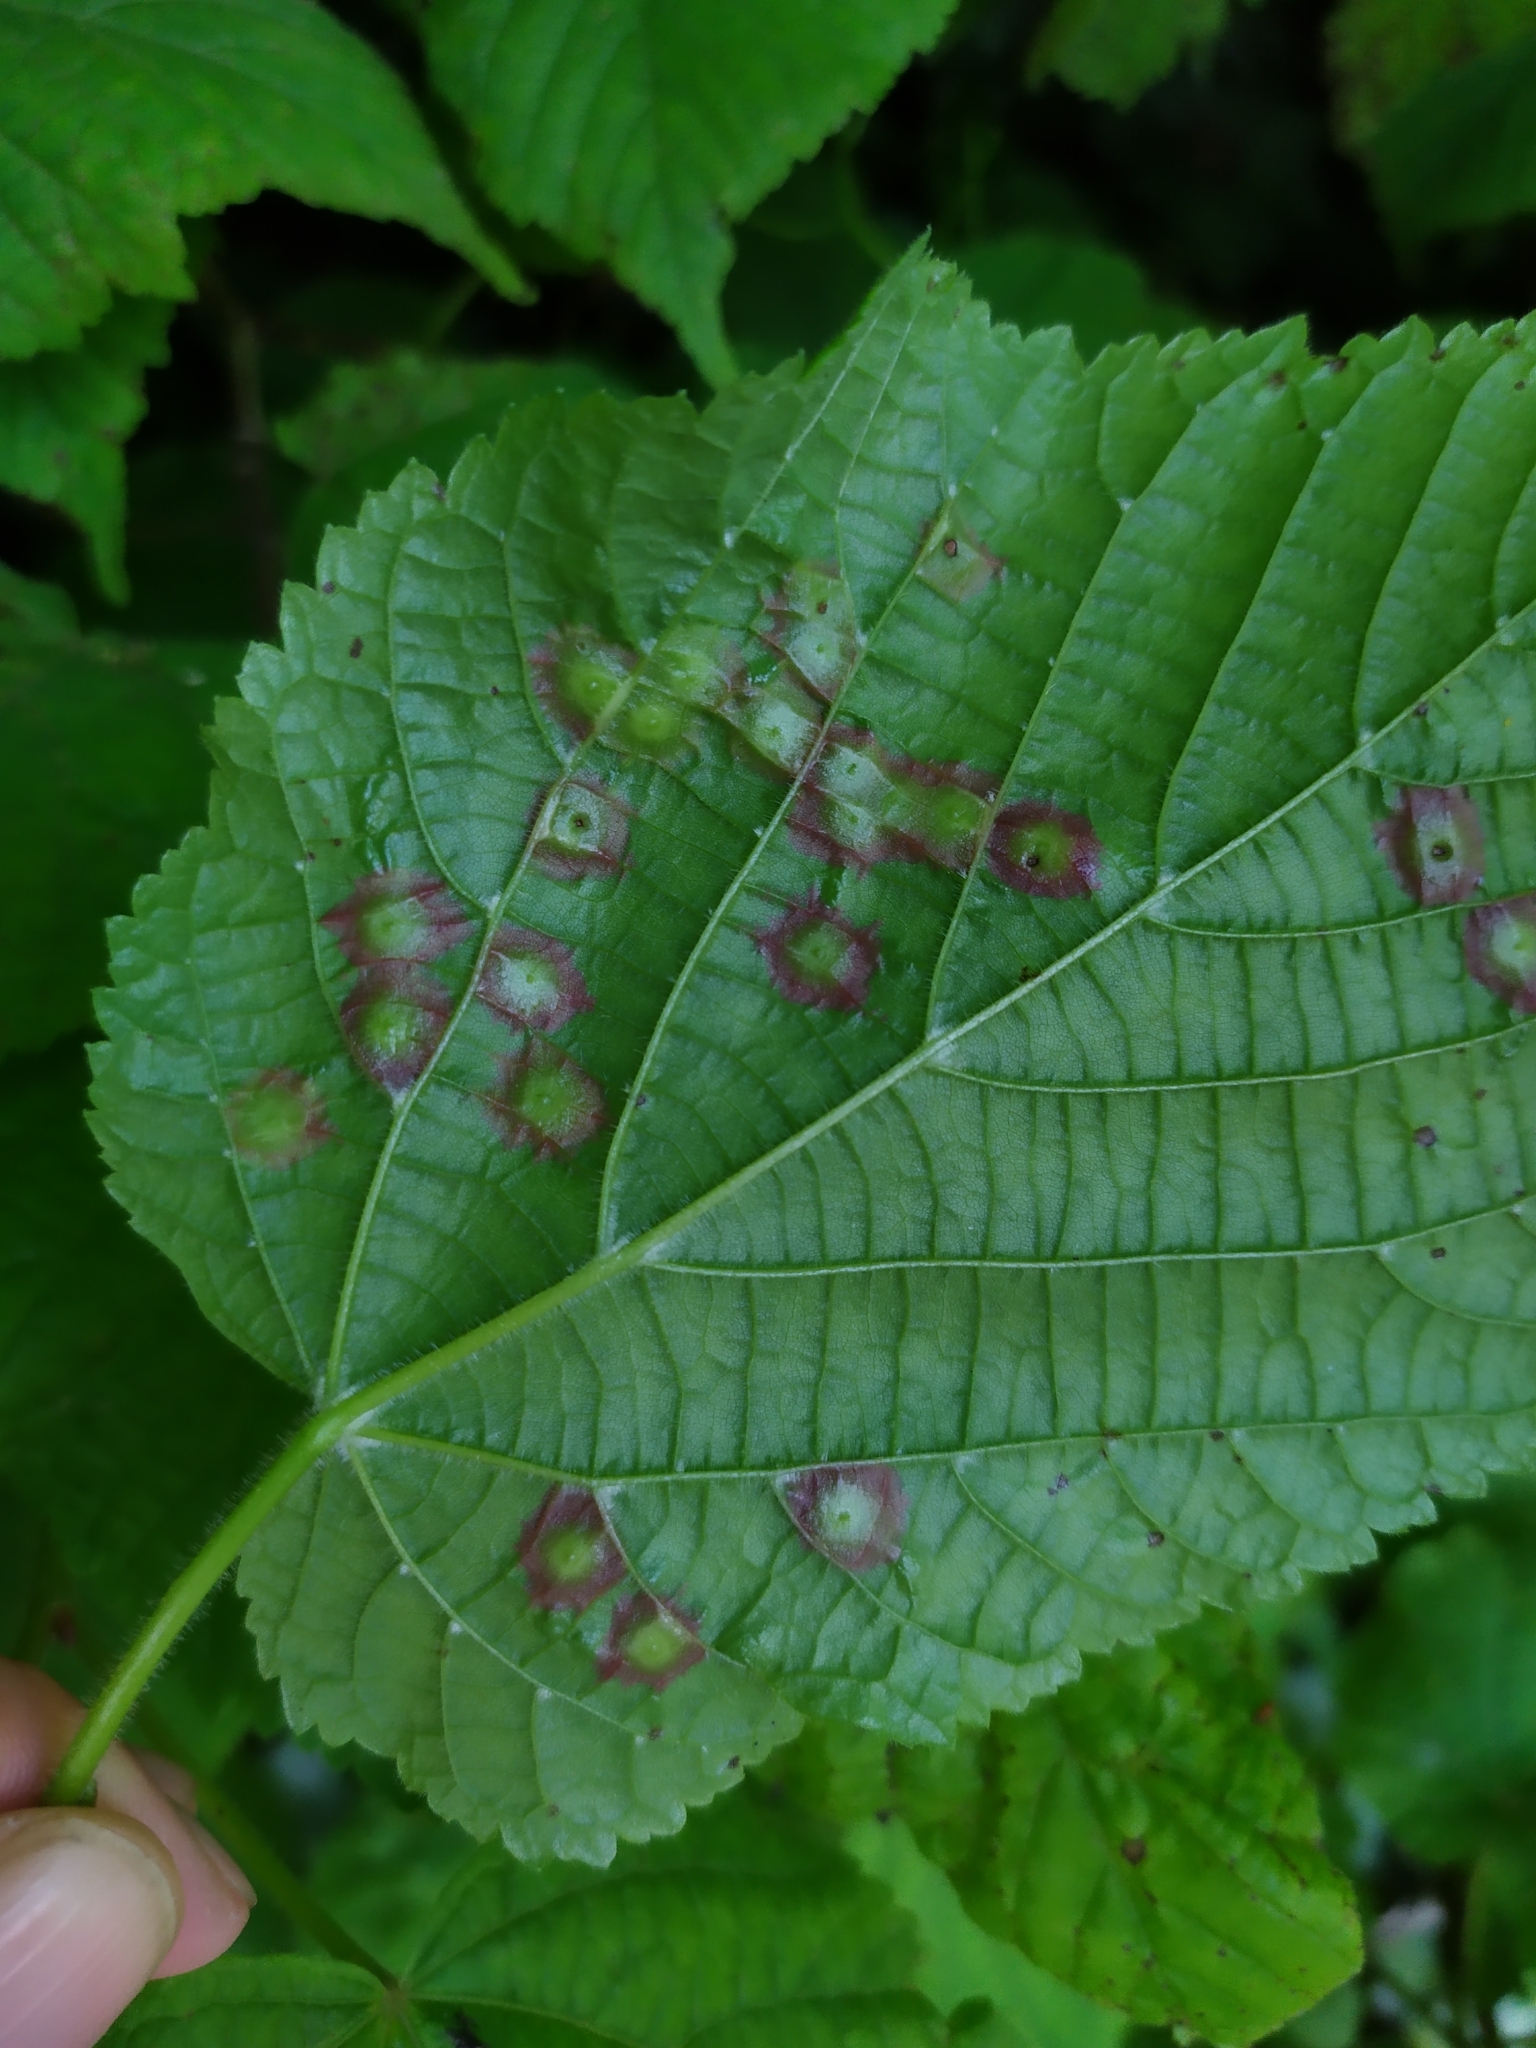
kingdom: Animalia
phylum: Arthropoda
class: Insecta
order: Diptera
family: Cecidomyiidae
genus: Didymomyia
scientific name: Didymomyia tiliacea
